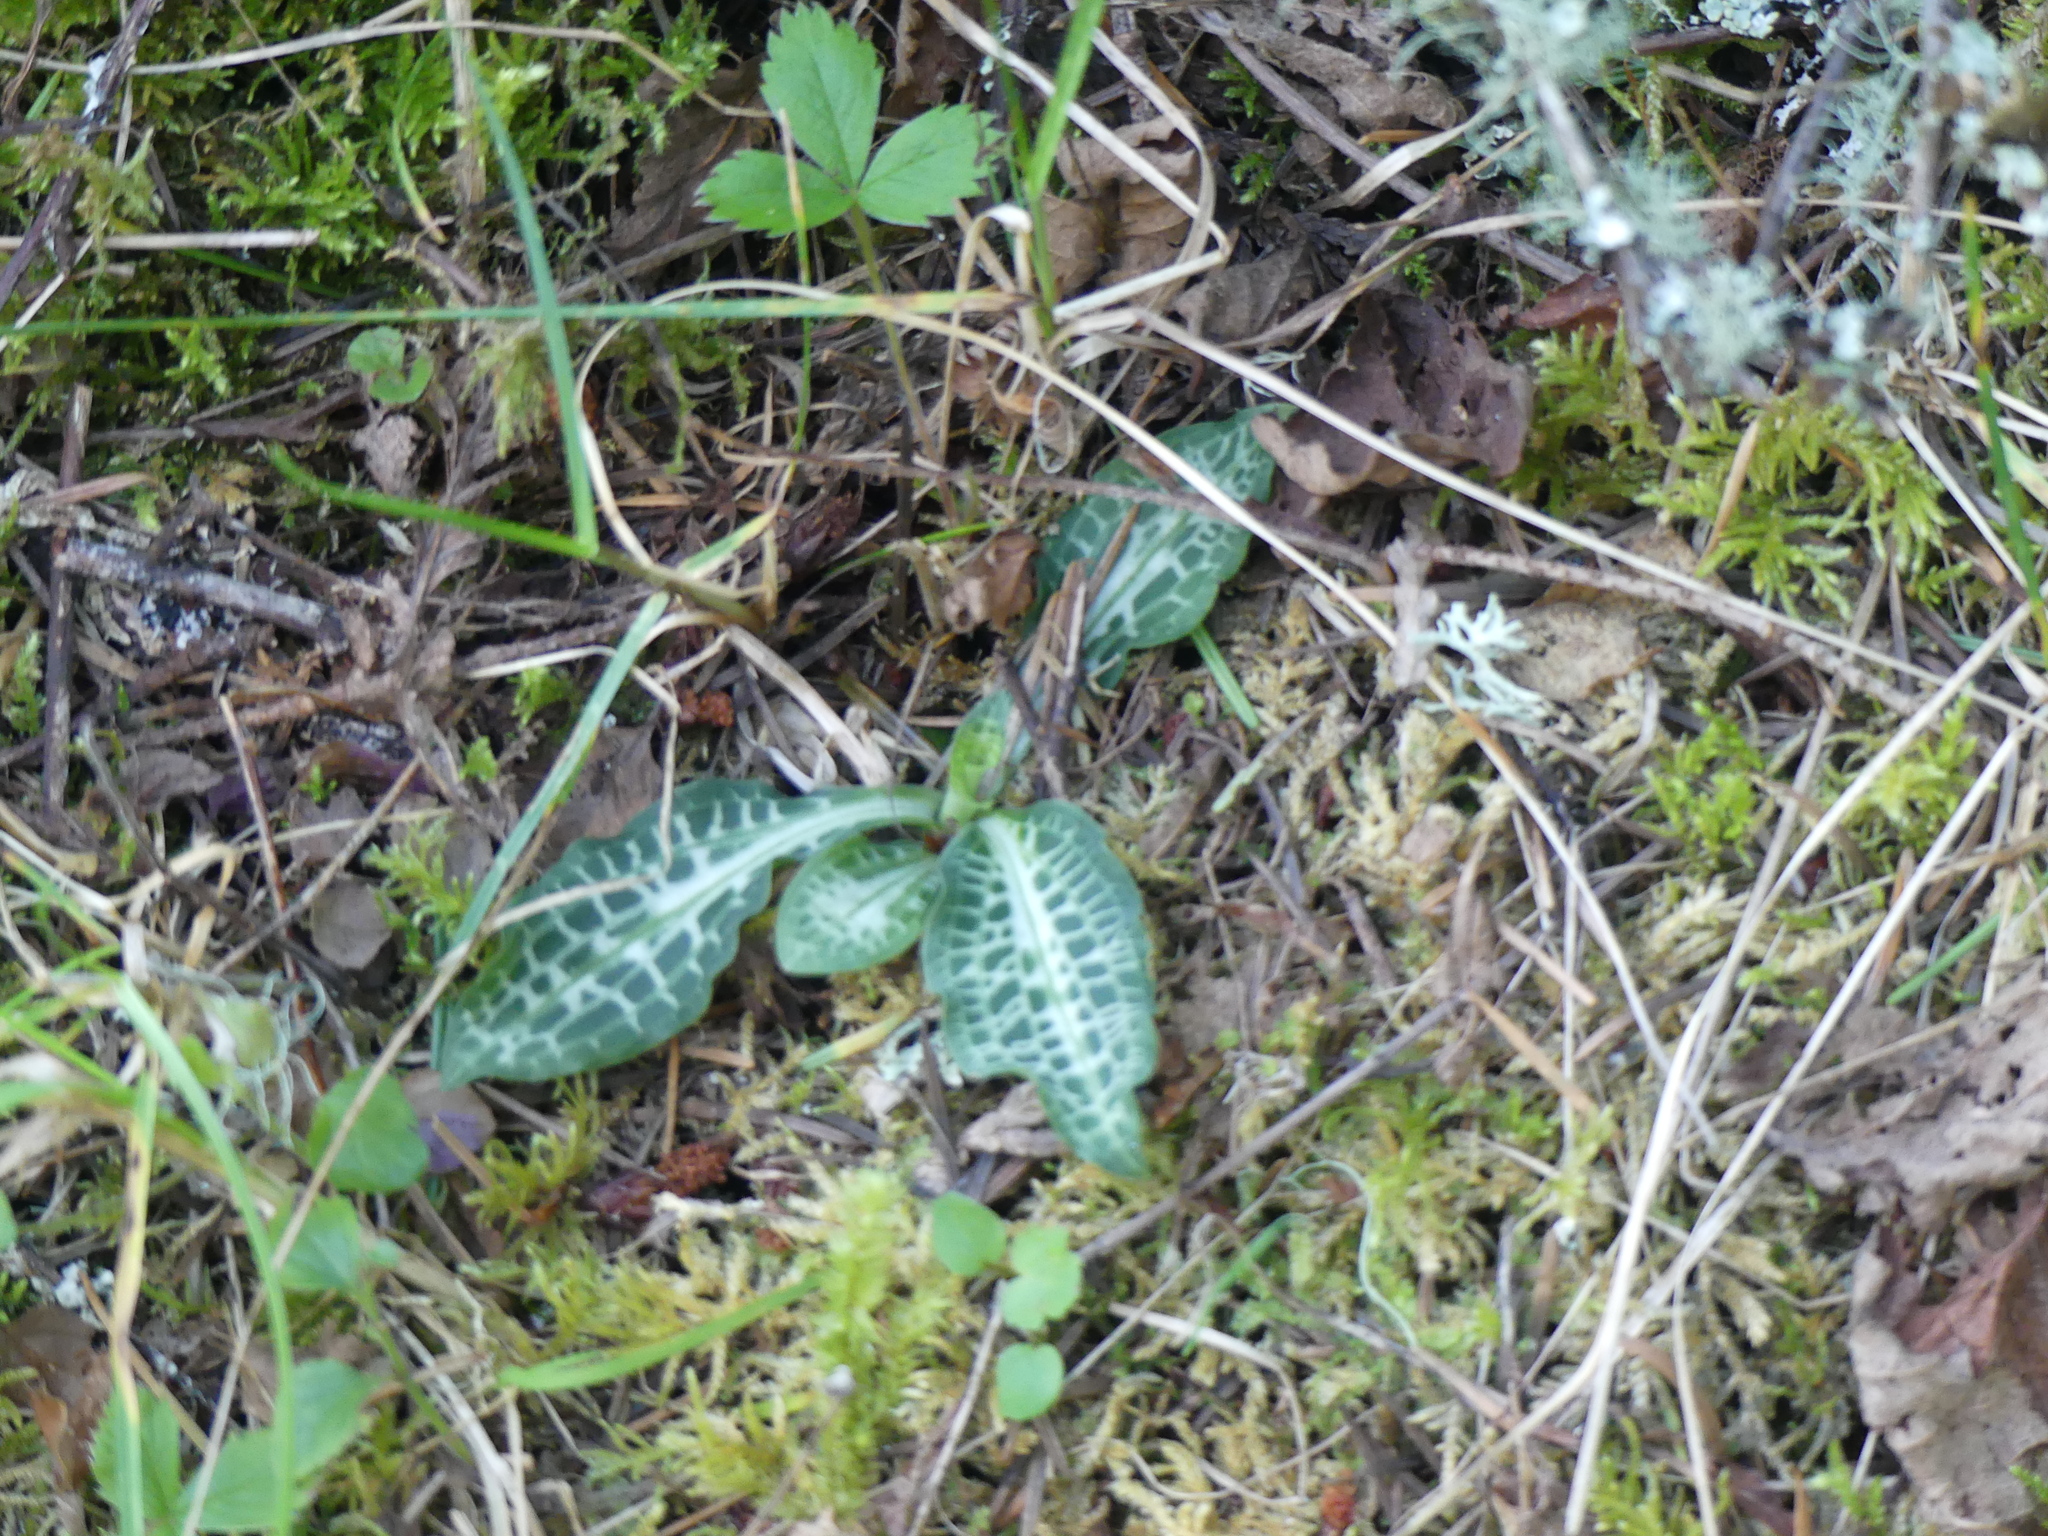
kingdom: Plantae
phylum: Tracheophyta
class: Liliopsida
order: Asparagales
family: Orchidaceae
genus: Goodyera
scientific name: Goodyera oblongifolia
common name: Giant rattlesnake-plantain
